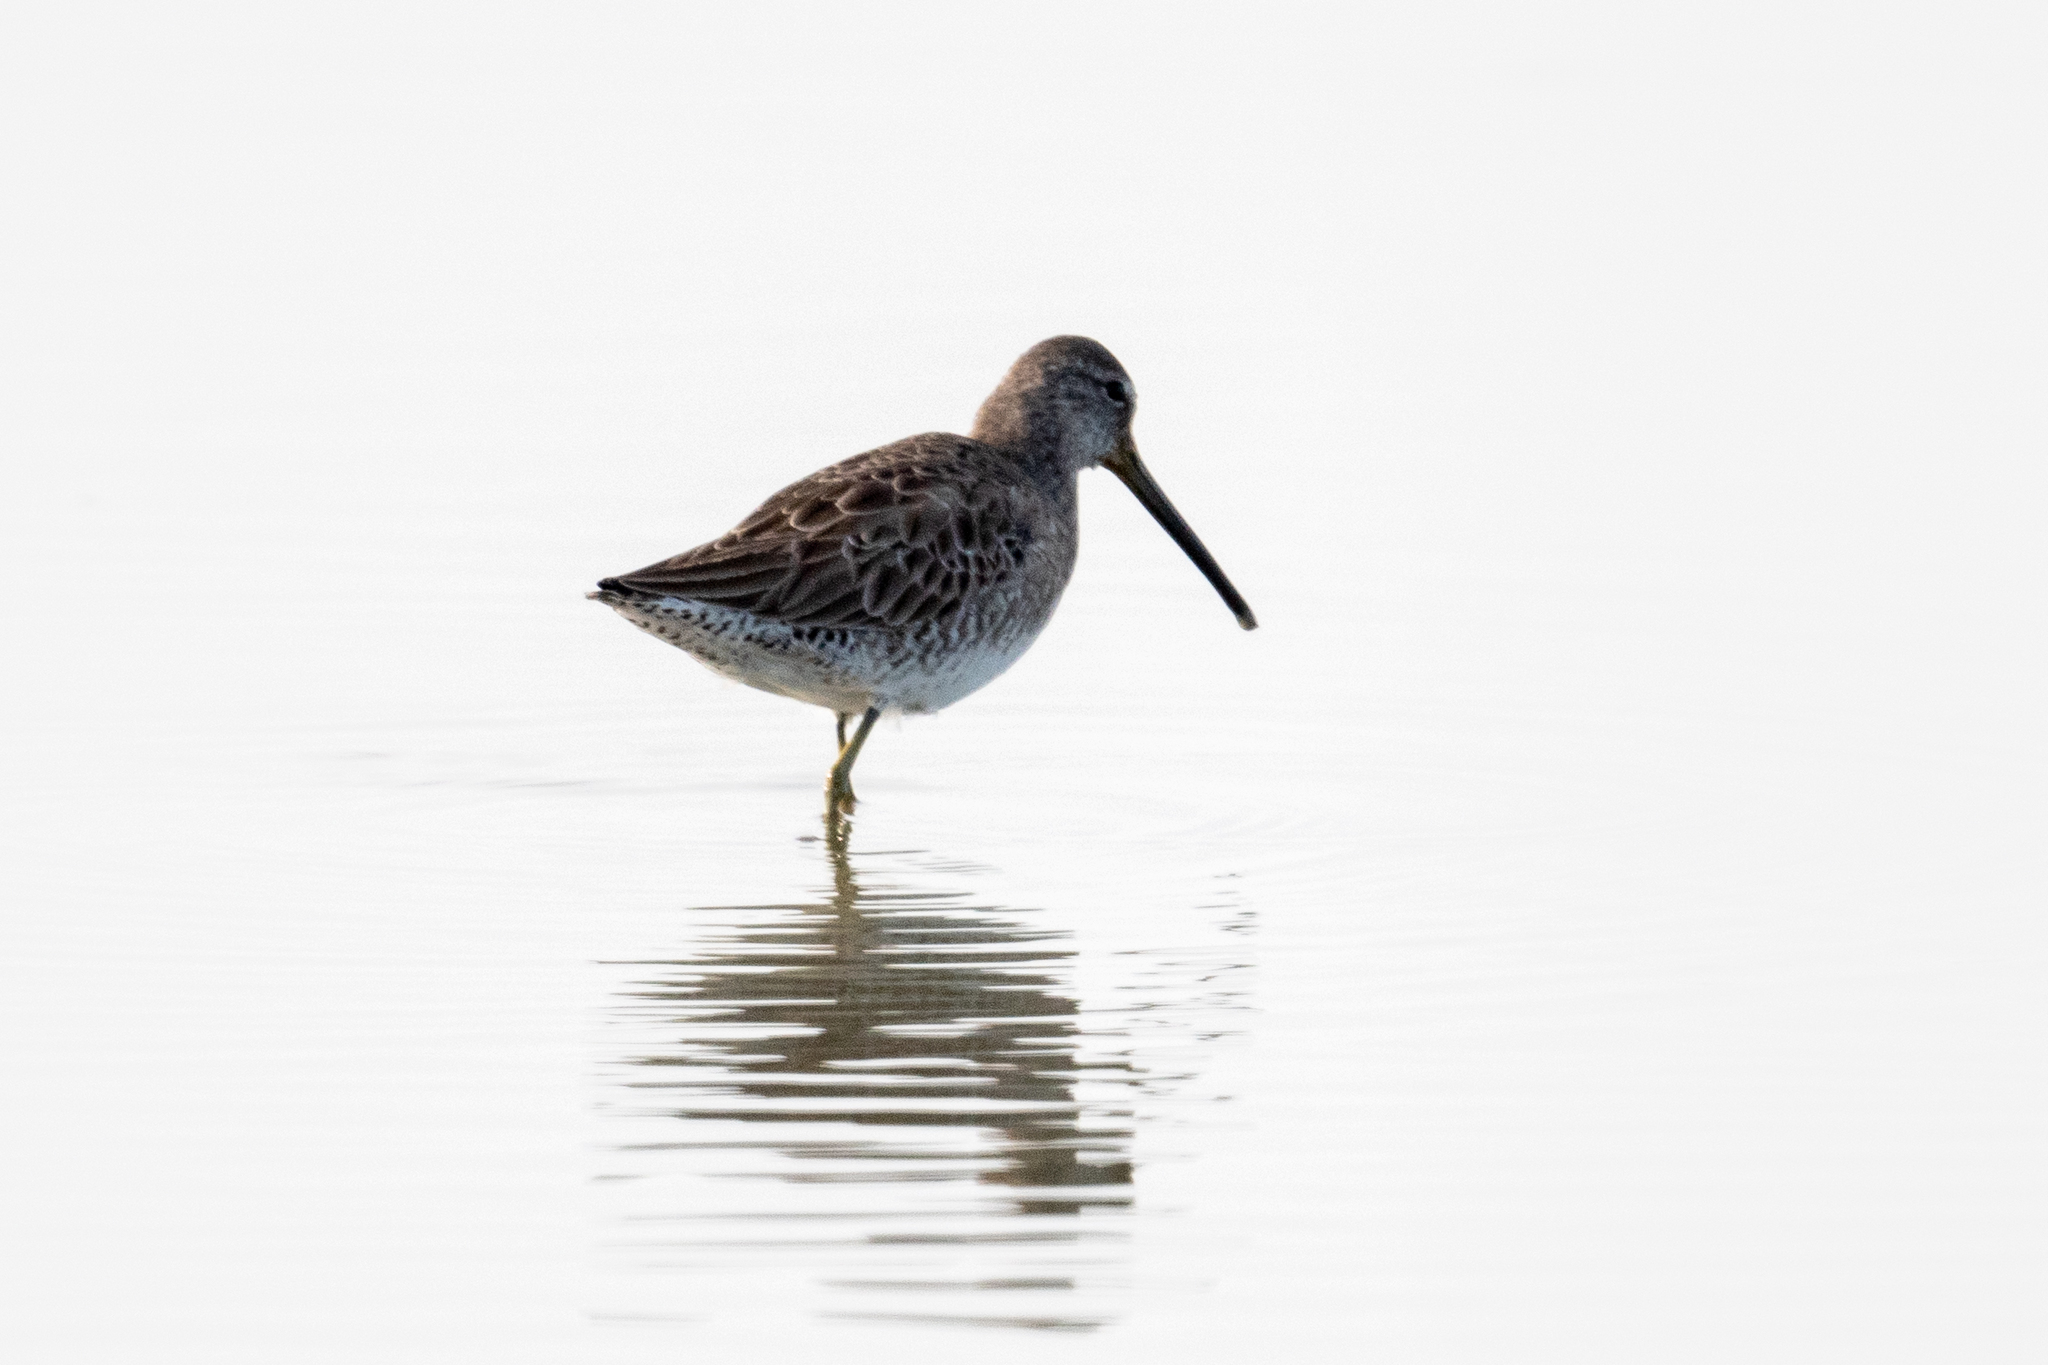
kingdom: Animalia
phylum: Chordata
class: Aves
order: Charadriiformes
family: Scolopacidae
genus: Limnodromus
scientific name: Limnodromus scolopaceus
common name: Long-billed dowitcher
